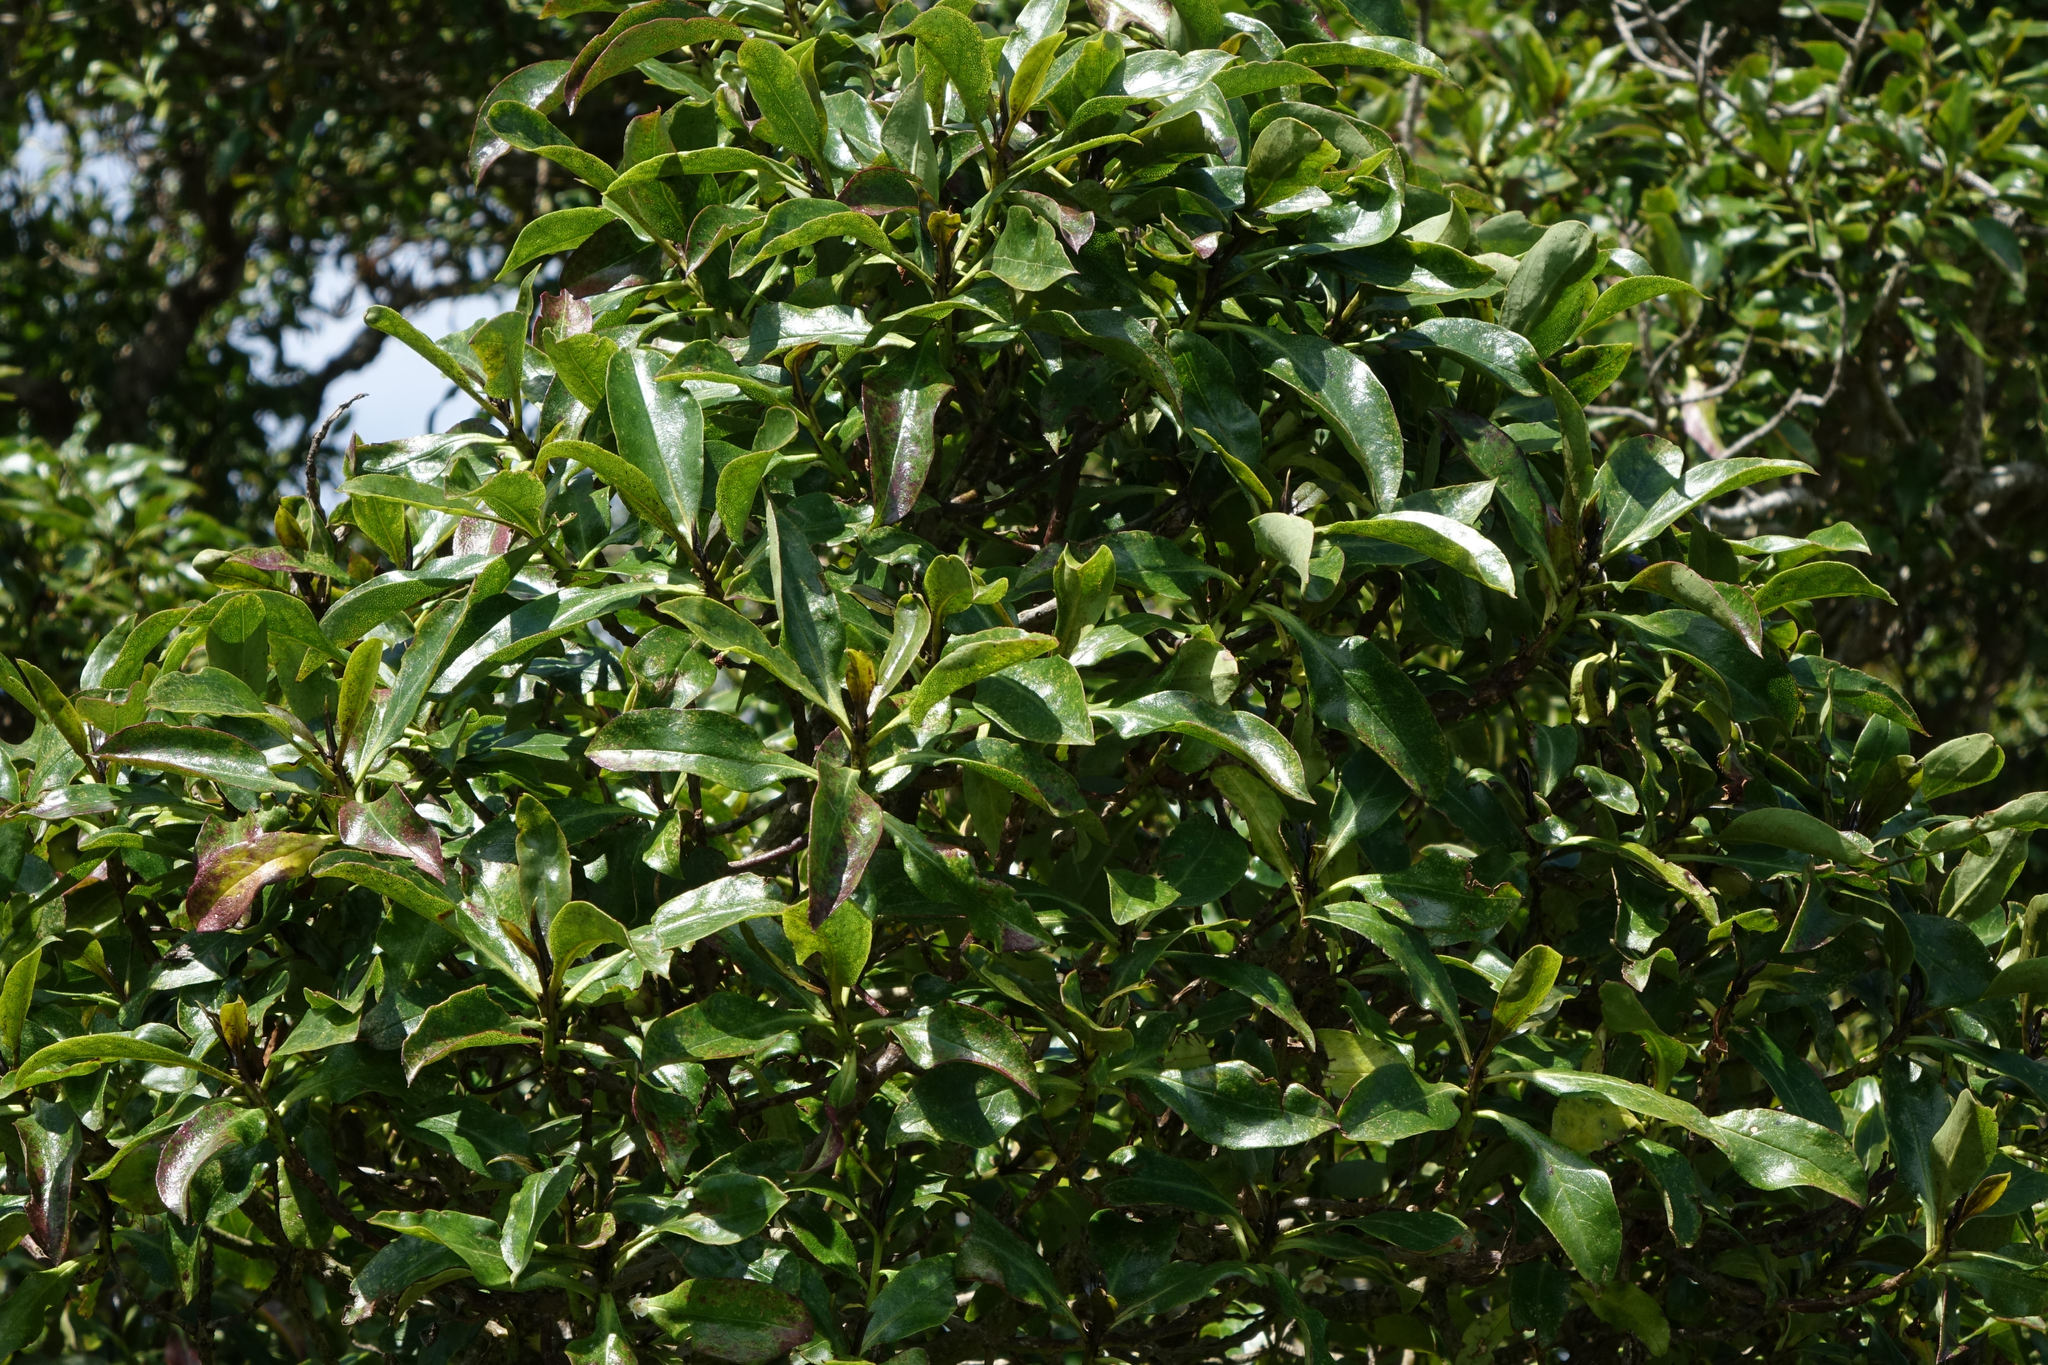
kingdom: Plantae
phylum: Tracheophyta
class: Magnoliopsida
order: Lamiales
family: Scrophulariaceae
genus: Myoporum
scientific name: Myoporum laetum
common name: Ngaio tree
